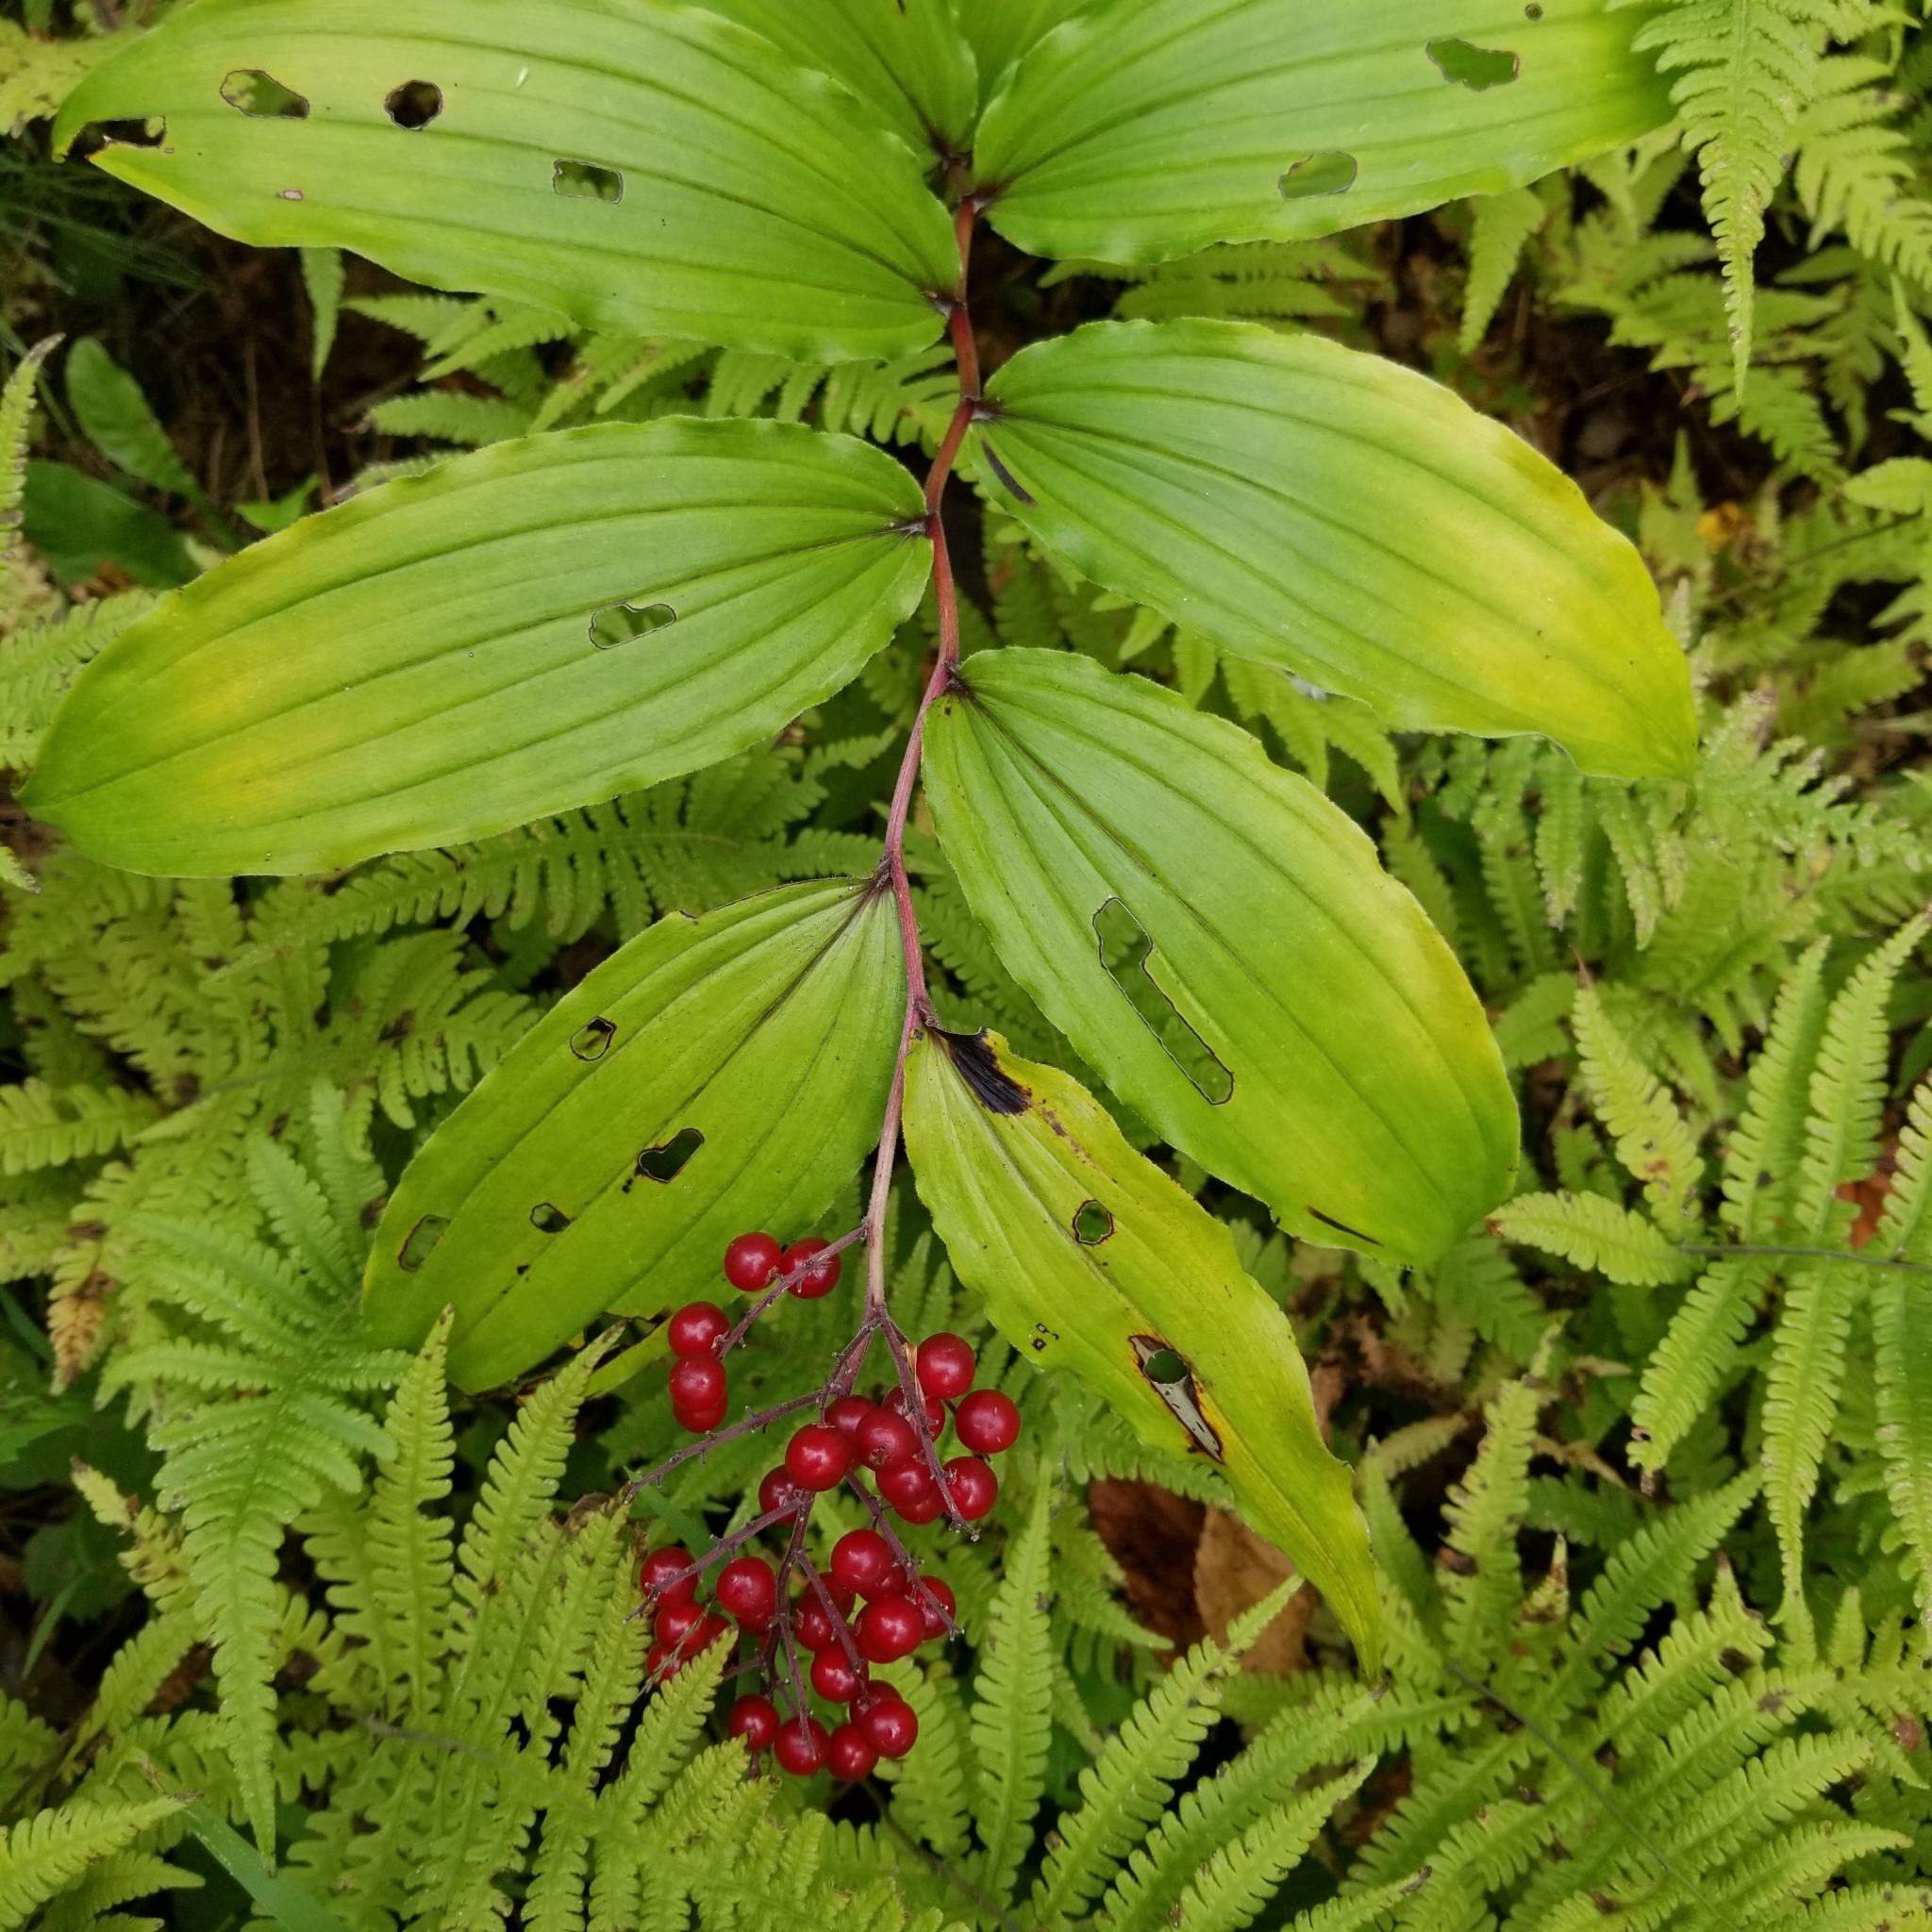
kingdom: Plantae
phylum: Tracheophyta
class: Liliopsida
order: Asparagales
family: Asparagaceae
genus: Maianthemum
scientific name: Maianthemum racemosum
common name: False spikenard
